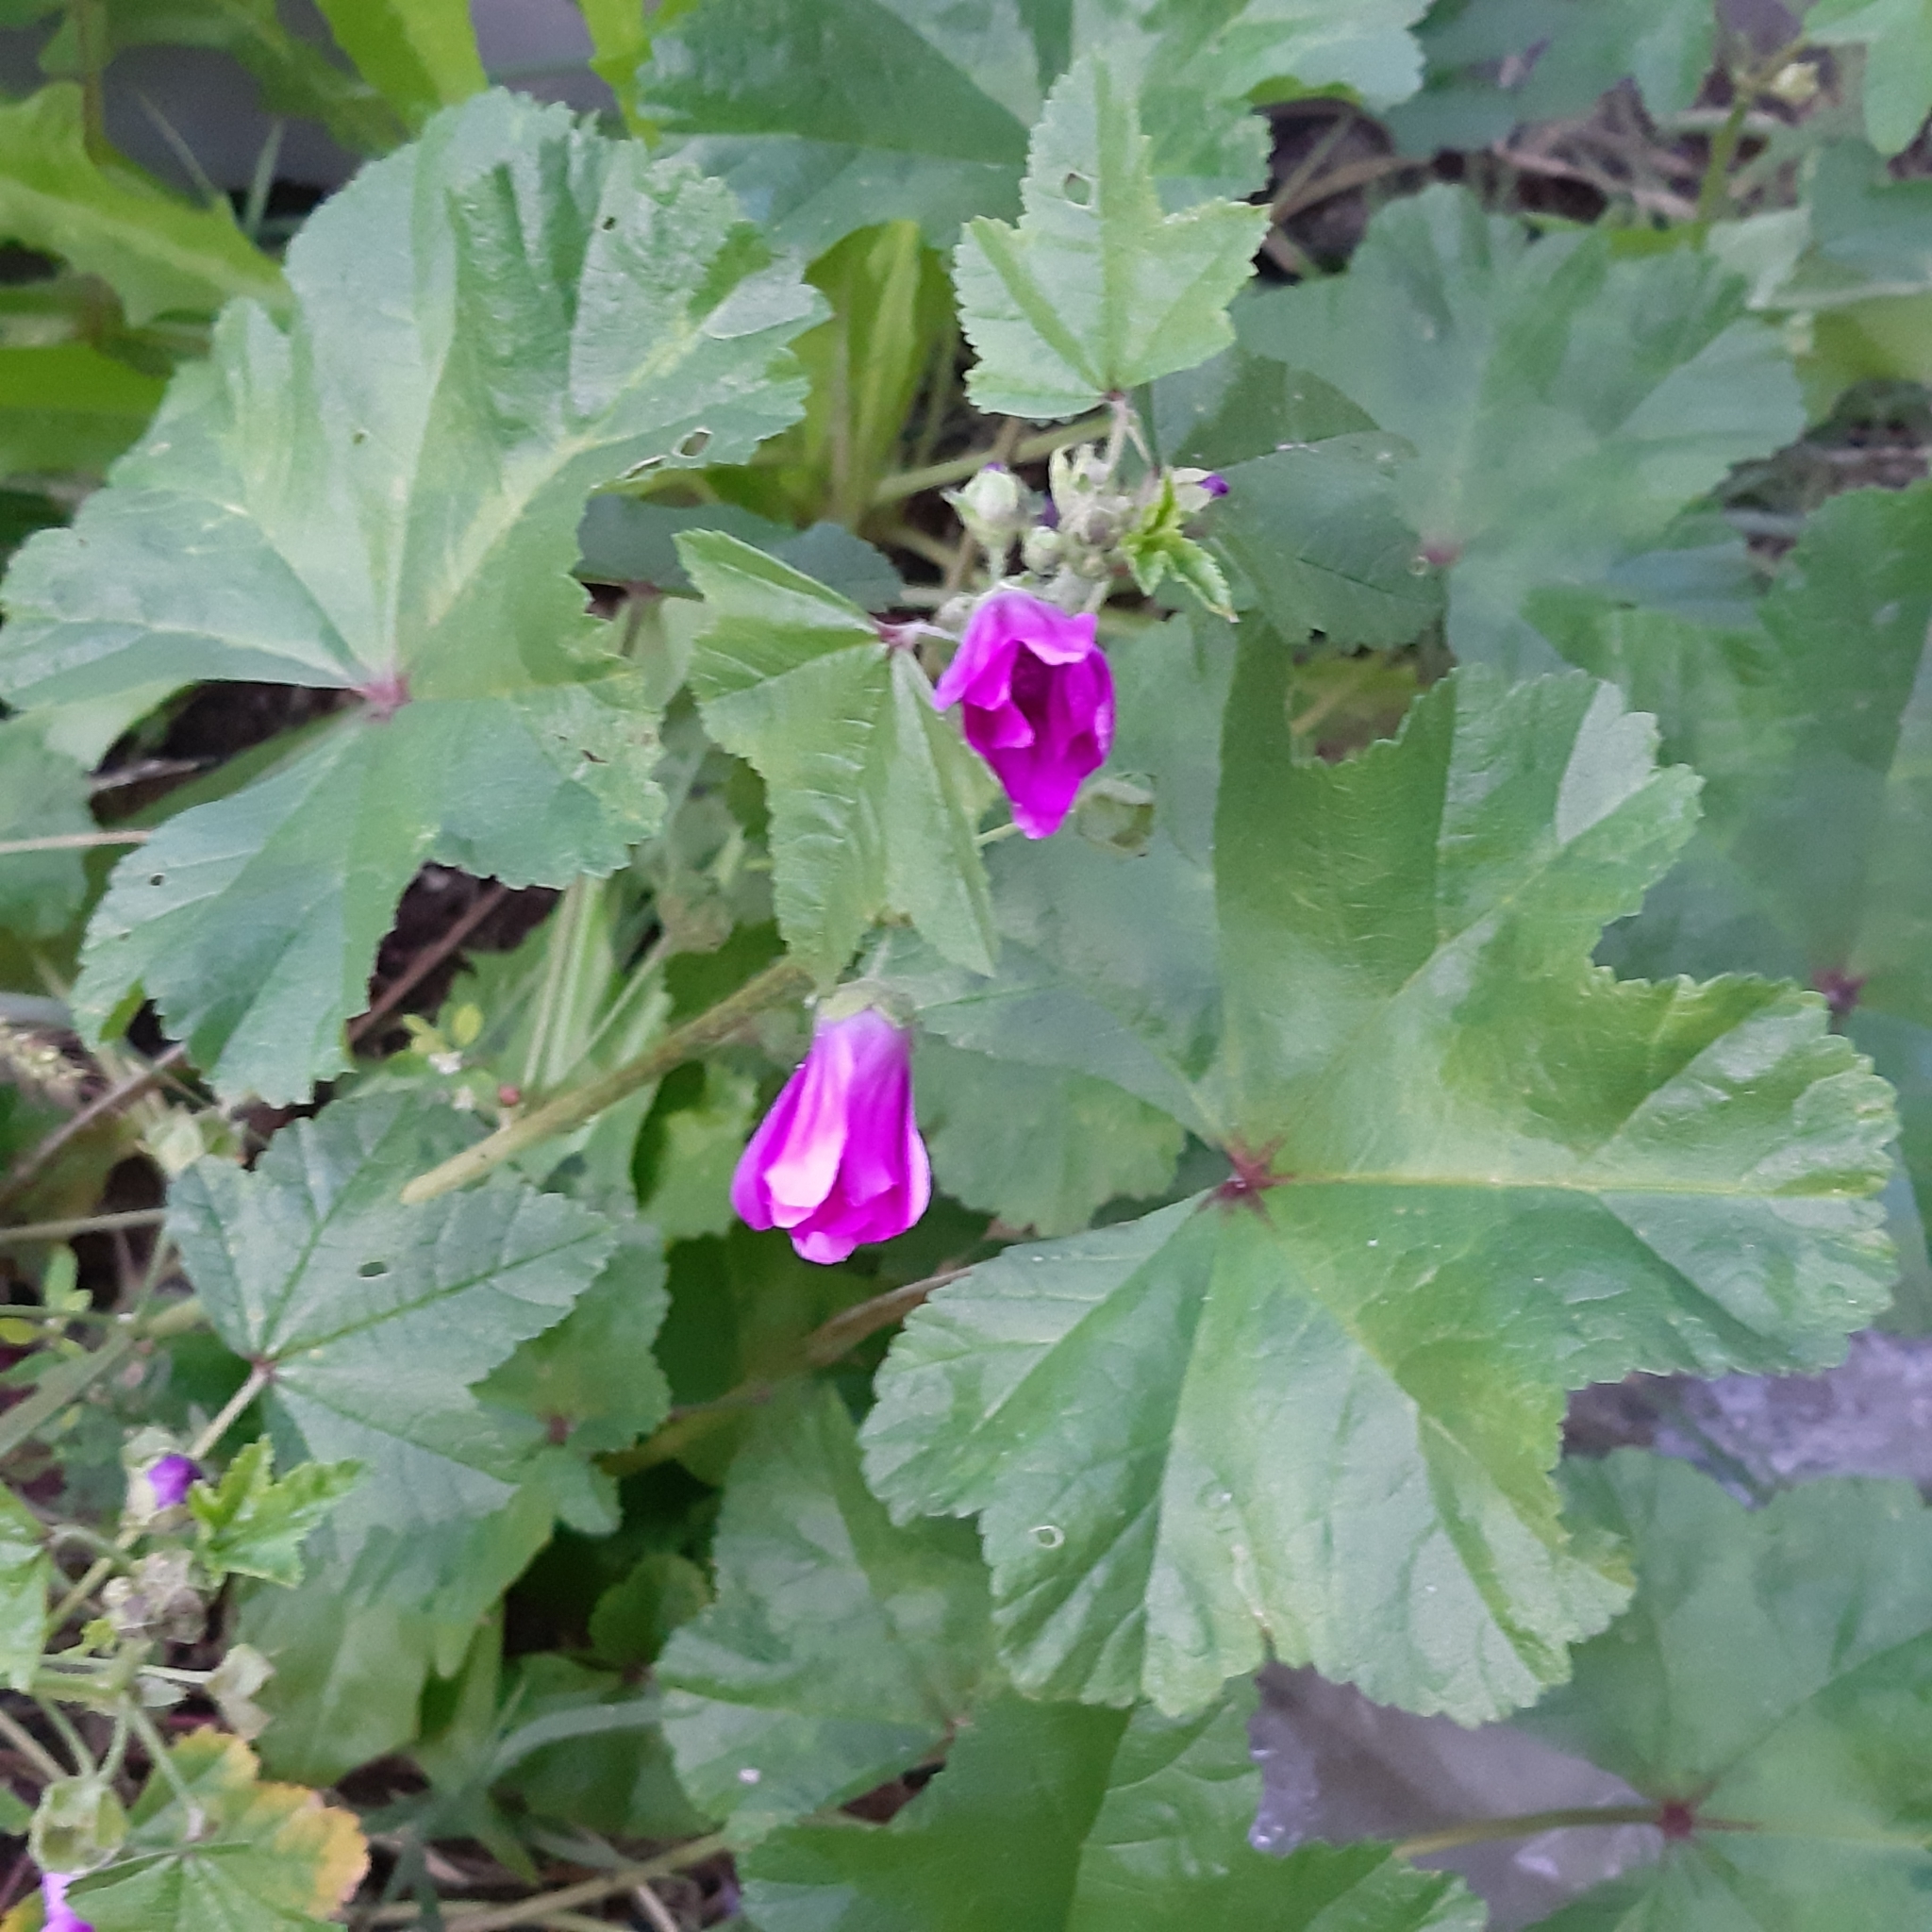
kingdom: Plantae
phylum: Tracheophyta
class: Magnoliopsida
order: Malvales
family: Malvaceae
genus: Malva
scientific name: Malva sylvestris
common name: Common mallow
